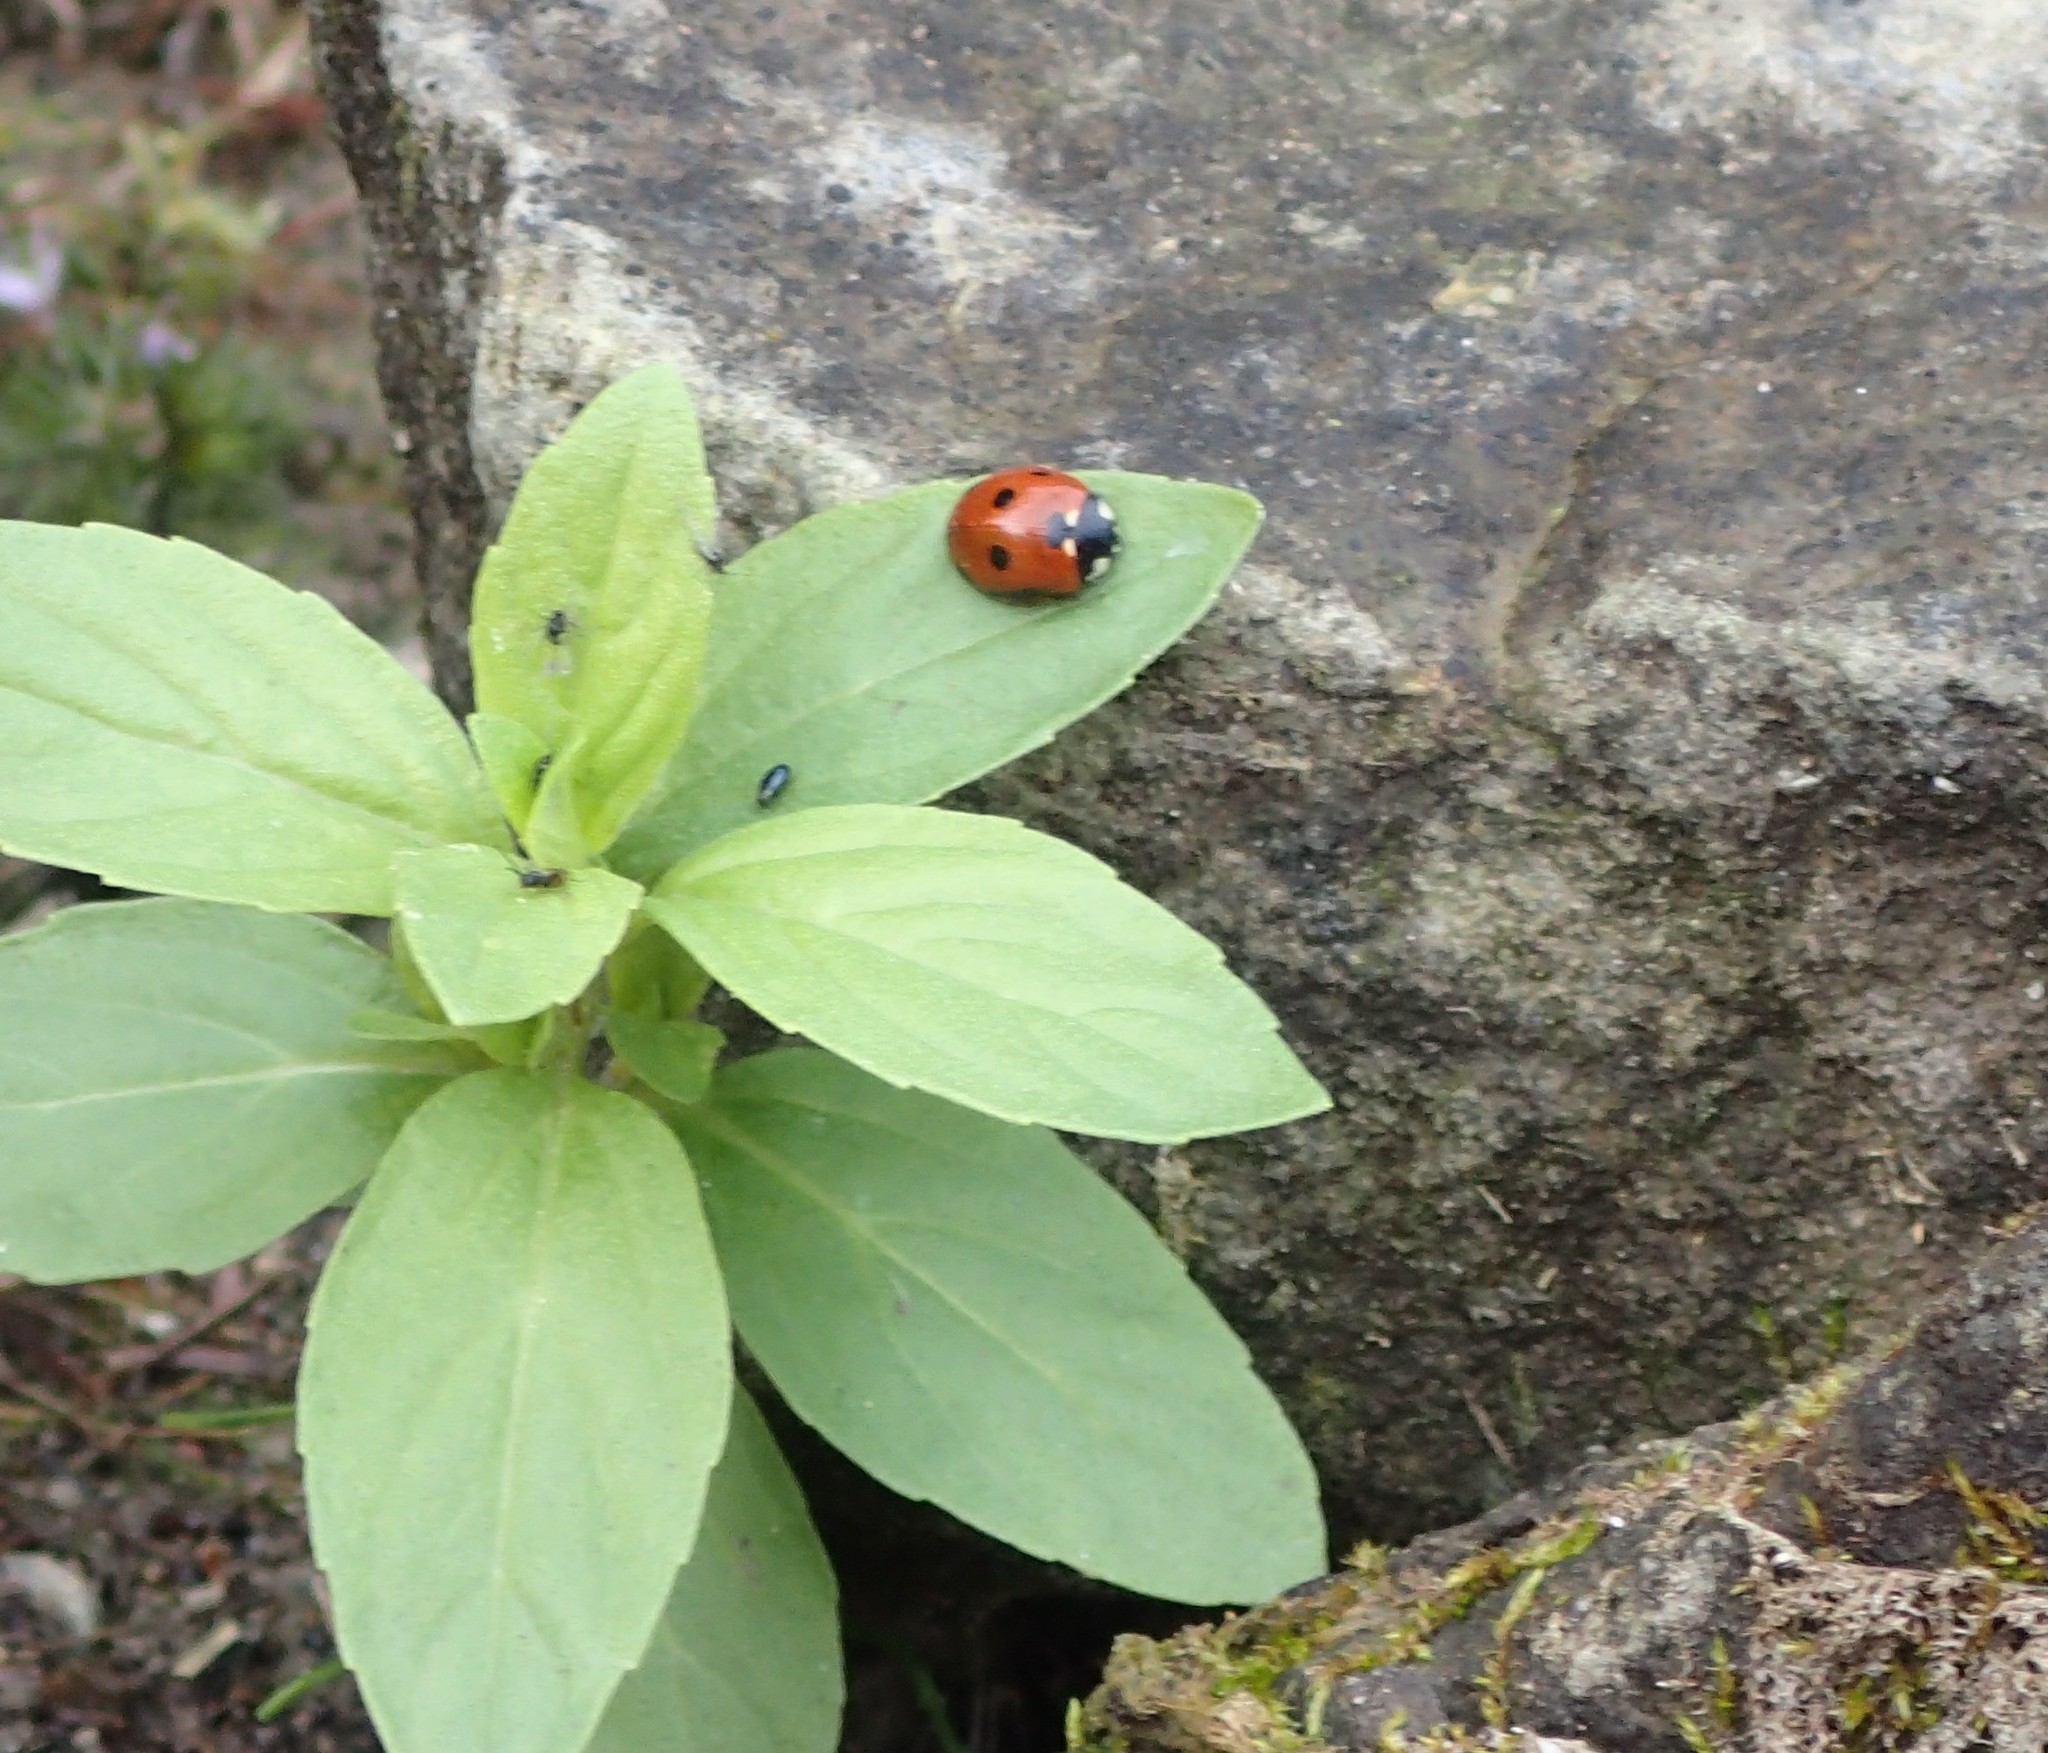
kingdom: Animalia
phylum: Arthropoda
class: Insecta
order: Coleoptera
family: Coccinellidae
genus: Coccinella
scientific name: Coccinella septempunctata
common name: Sevenspotted lady beetle
